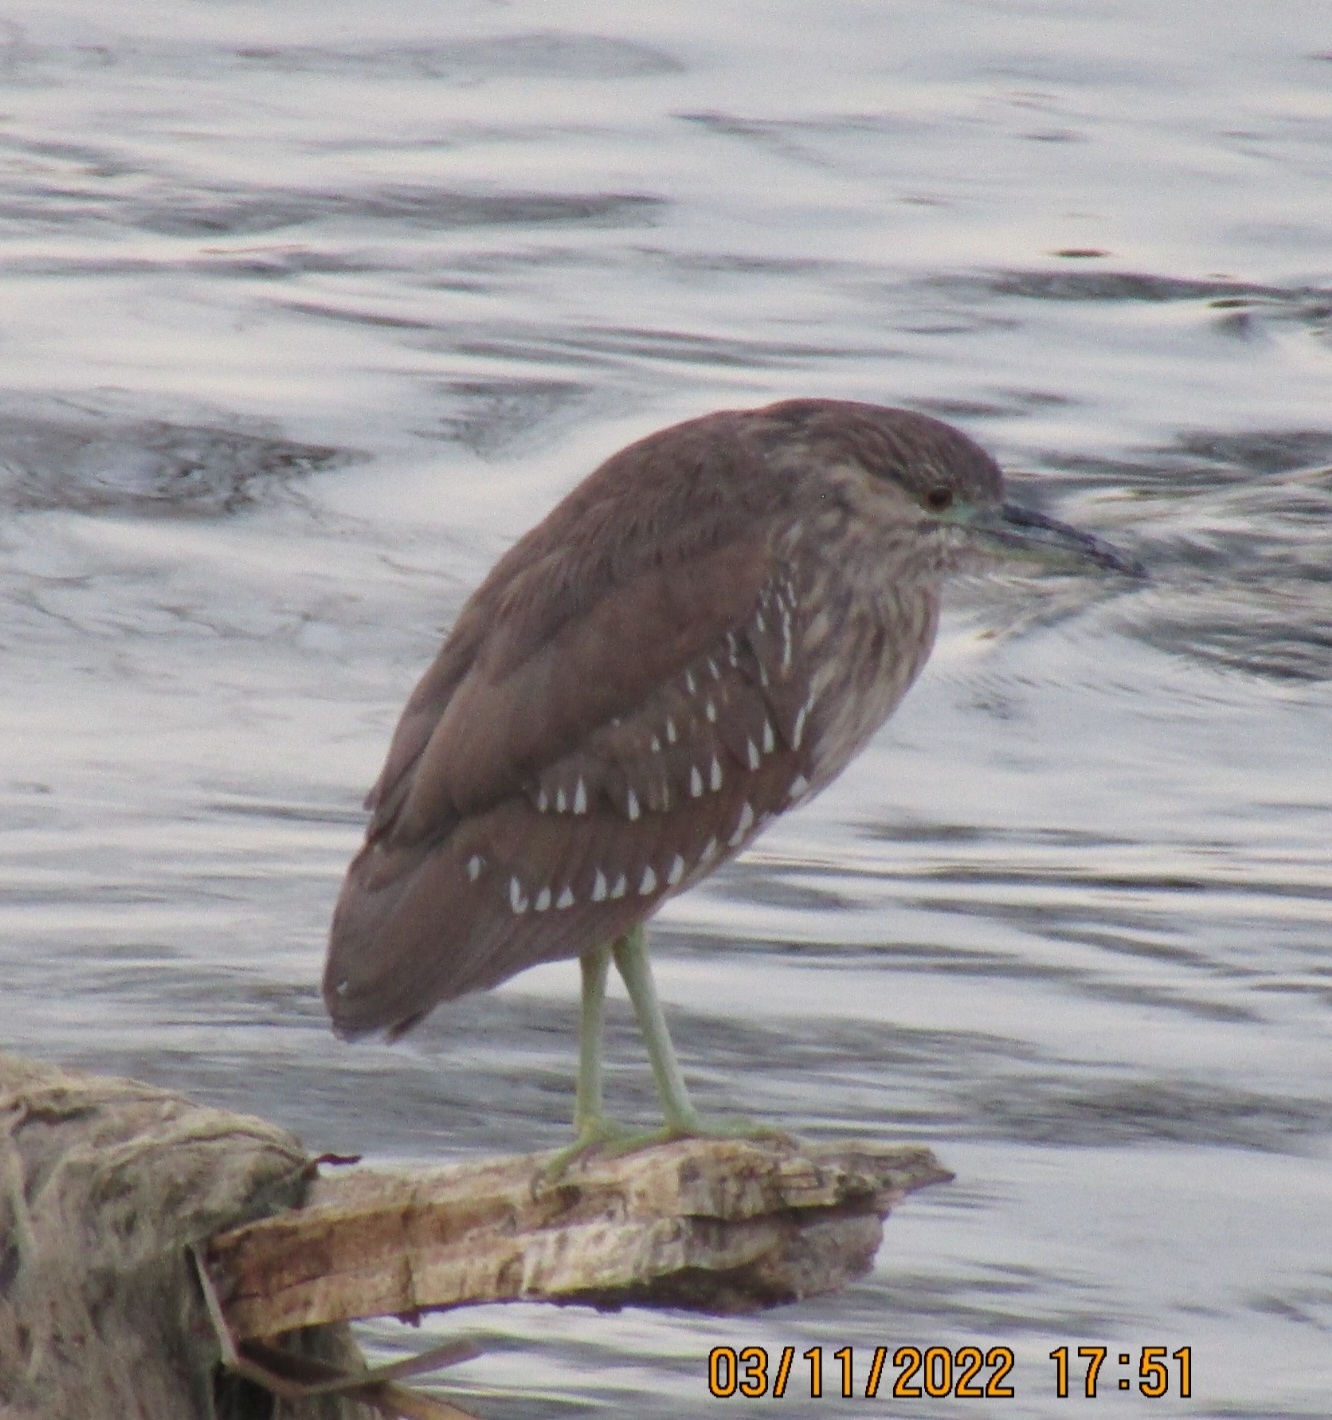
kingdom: Animalia
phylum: Chordata
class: Aves
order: Pelecaniformes
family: Ardeidae
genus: Nycticorax
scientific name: Nycticorax nycticorax
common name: Black-crowned night heron
